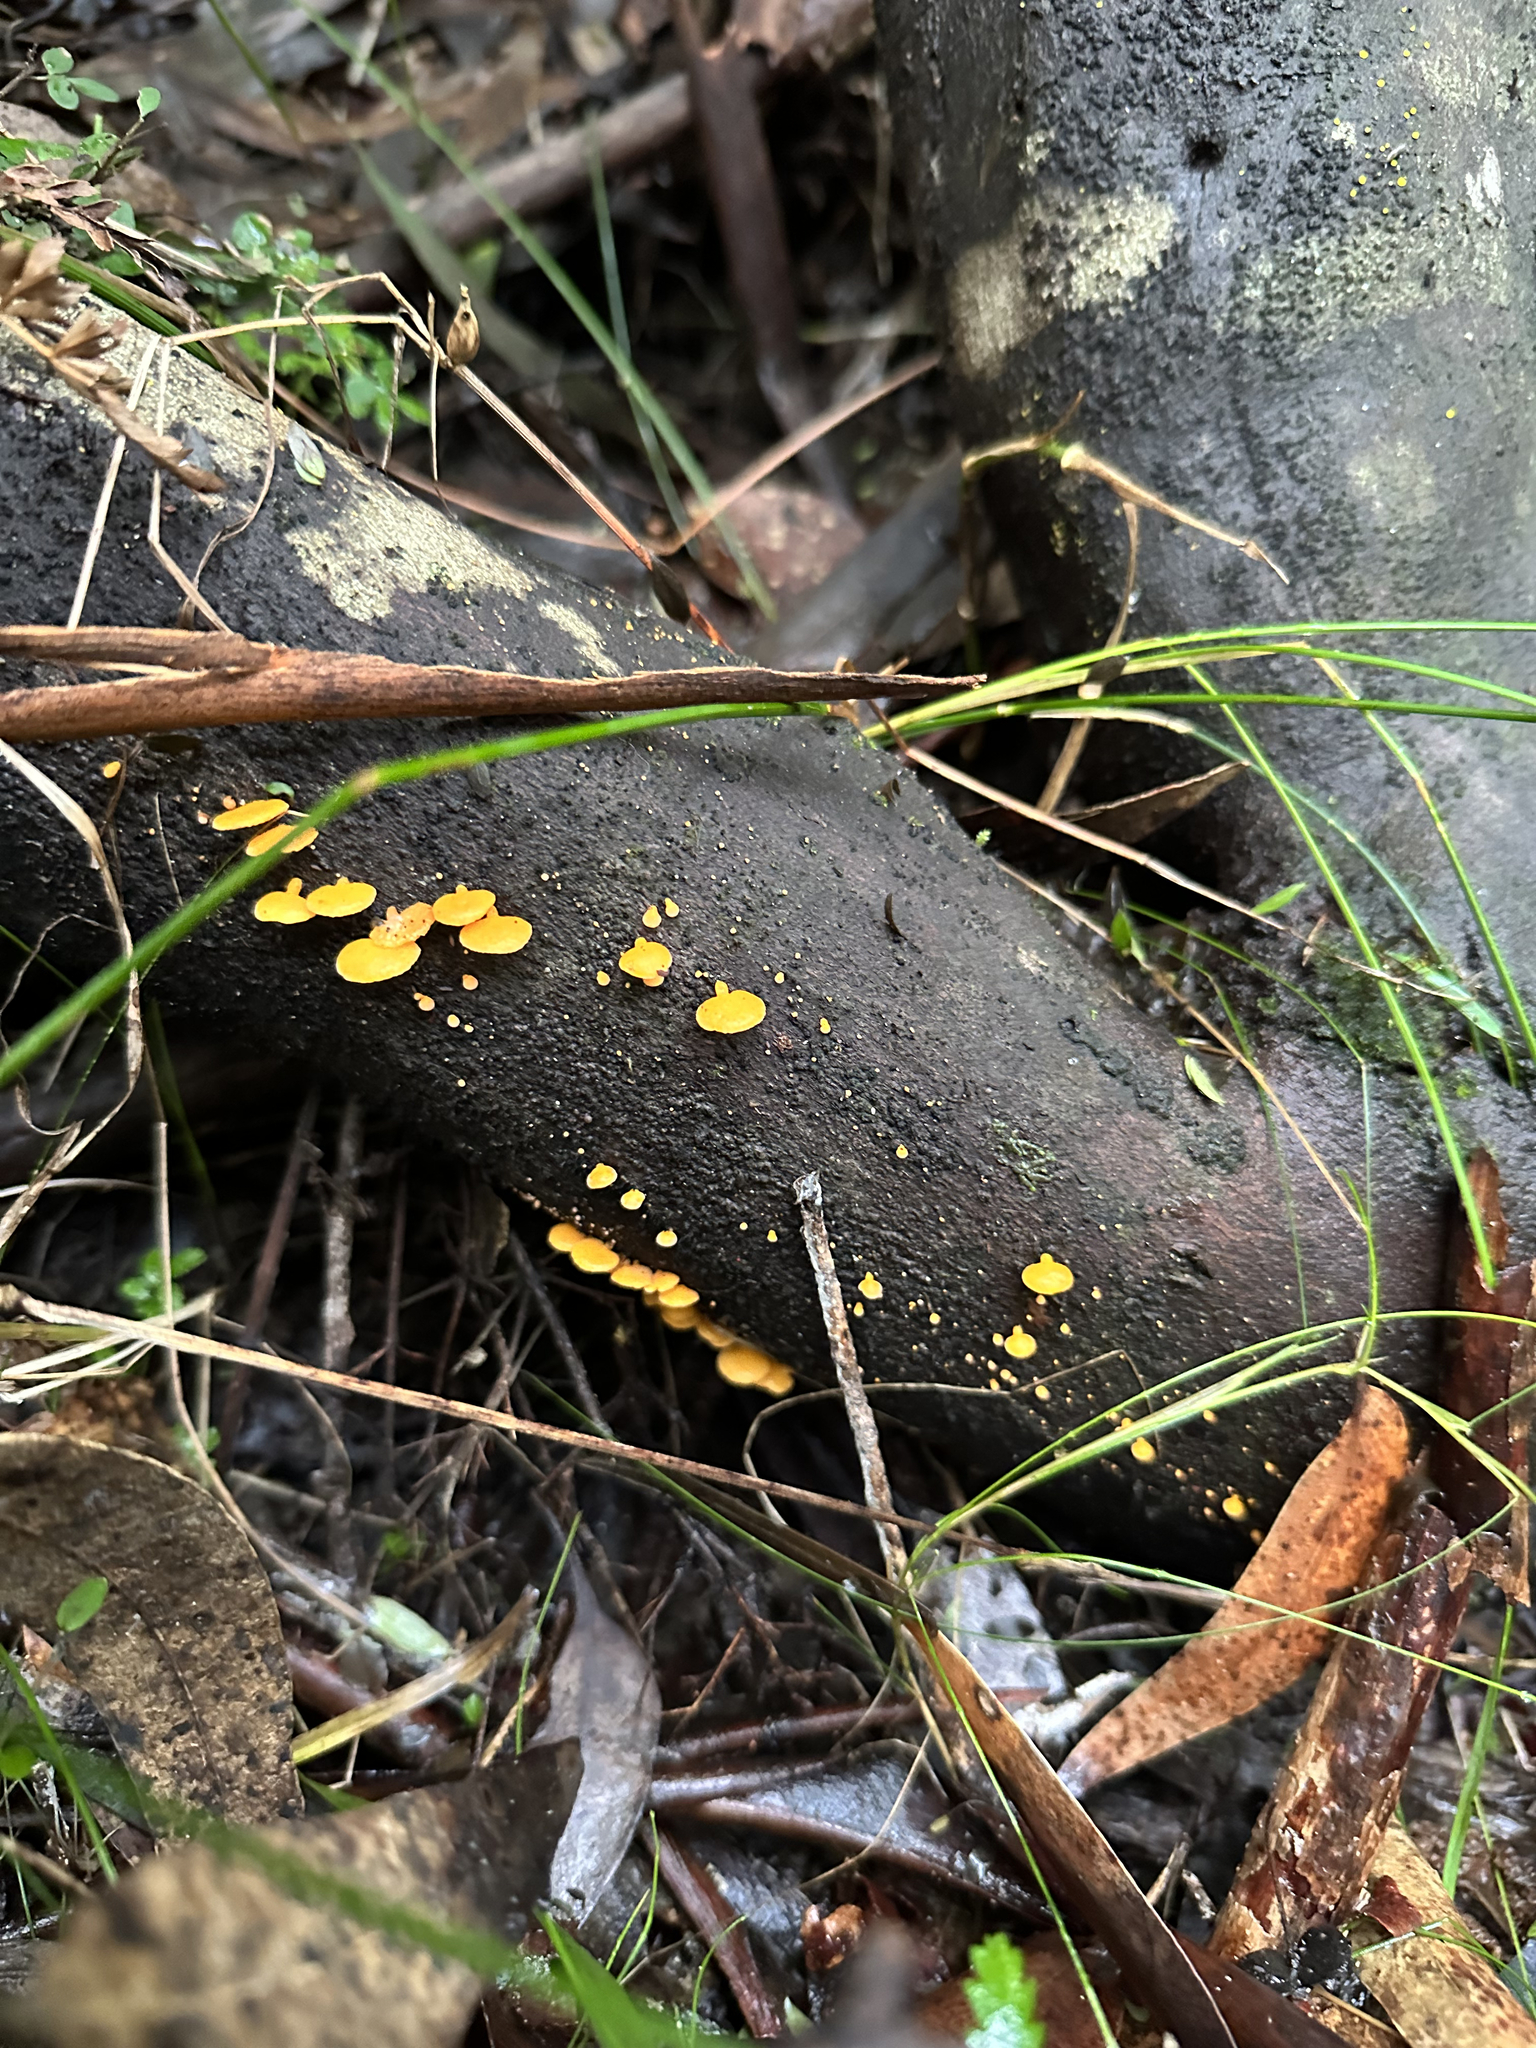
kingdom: Fungi
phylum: Basidiomycota
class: Agaricomycetes
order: Agaricales
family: Mycenaceae
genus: Favolaschia
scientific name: Favolaschia claudopus
